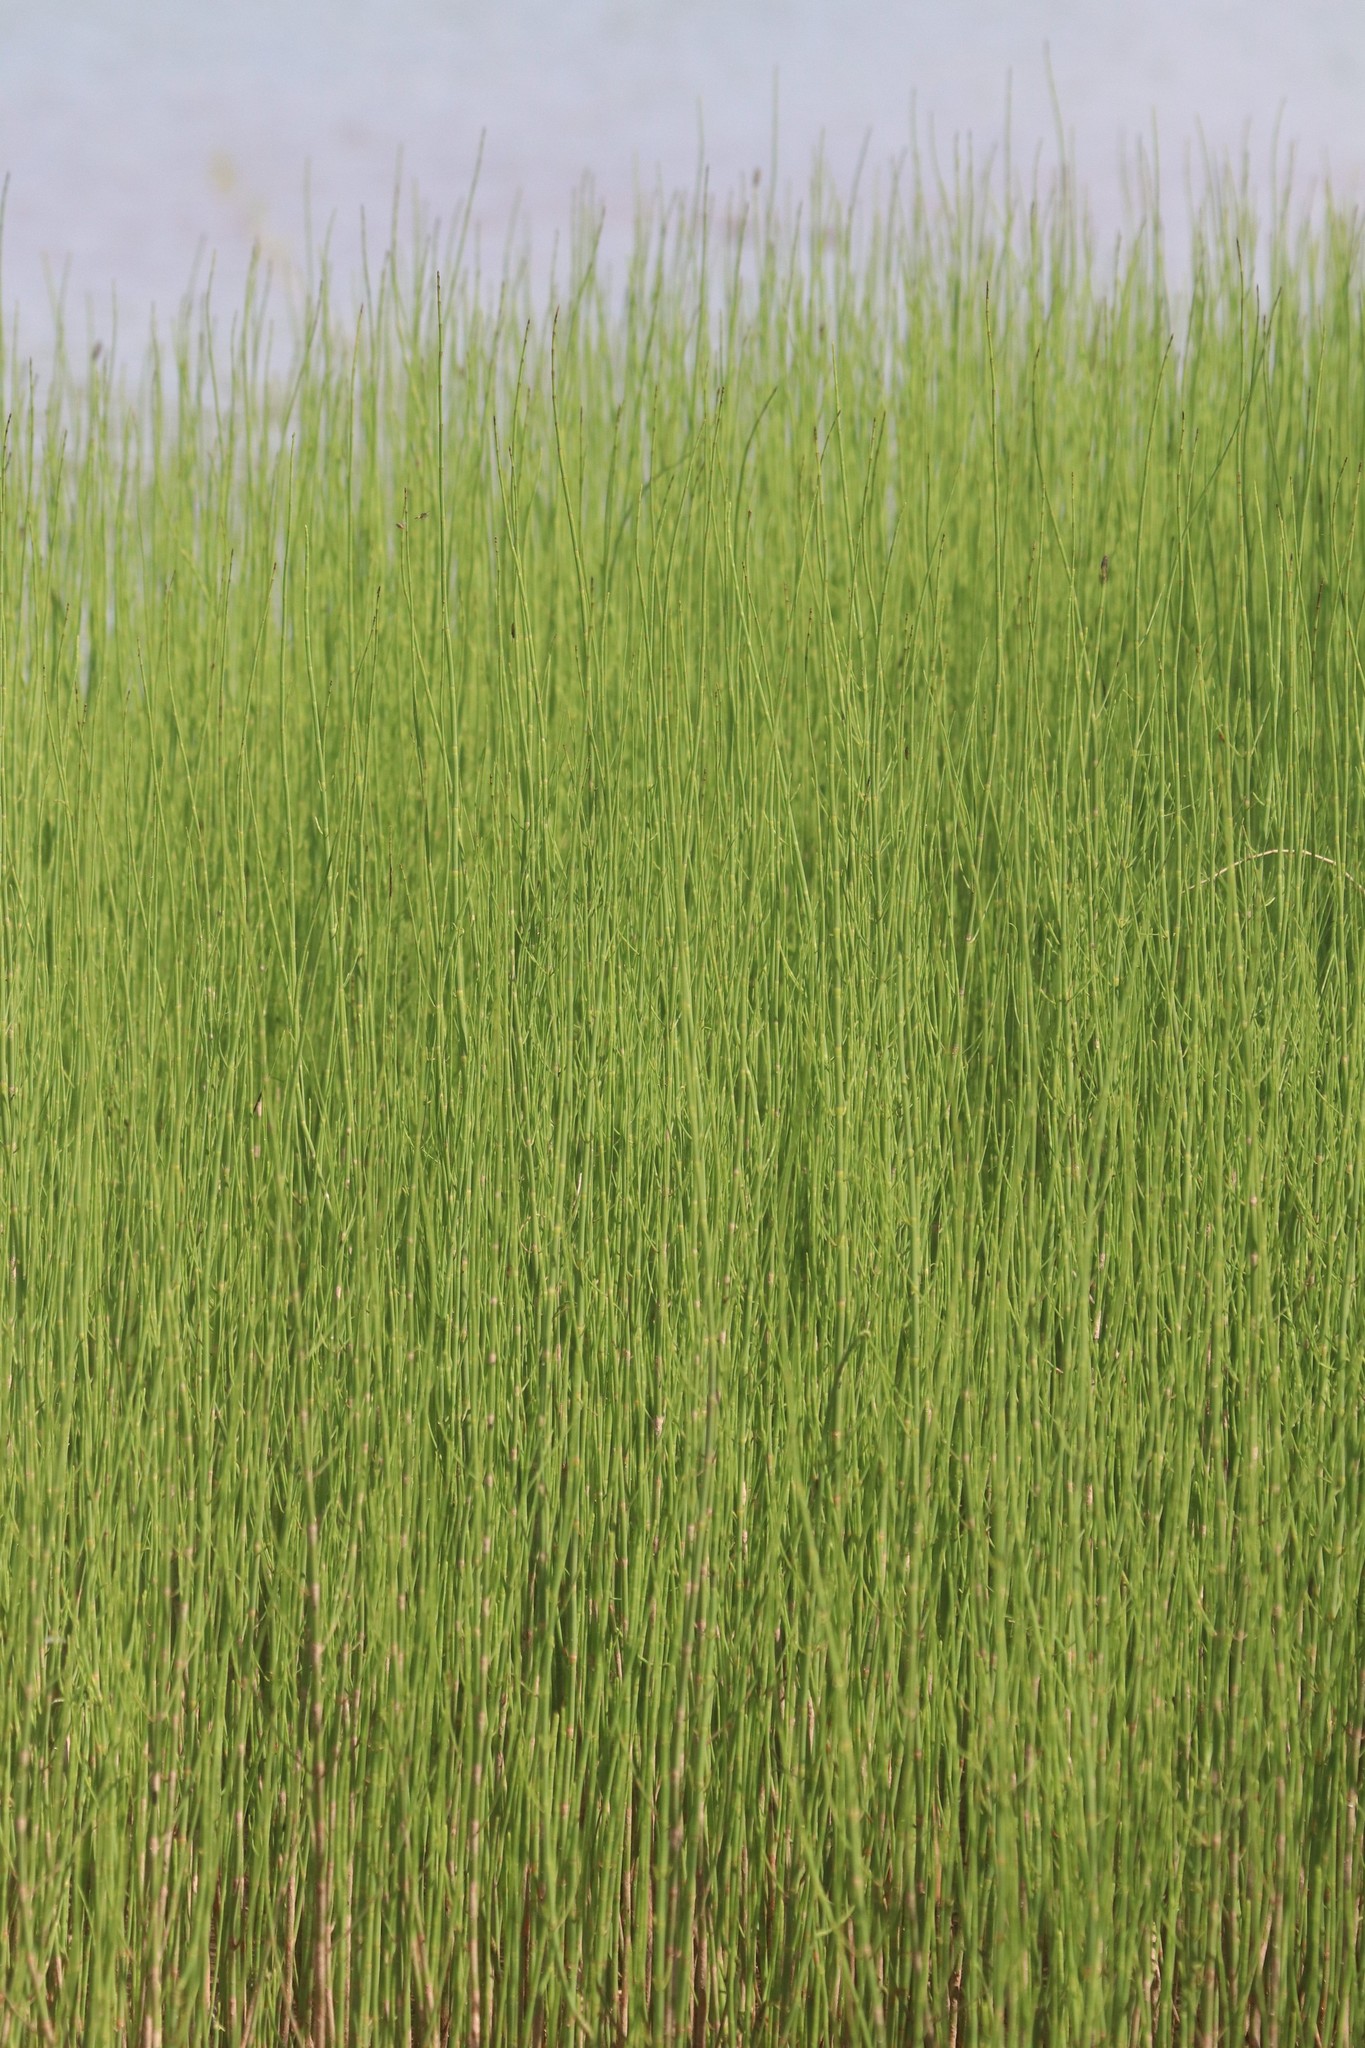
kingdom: Plantae
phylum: Tracheophyta
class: Polypodiopsida
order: Equisetales
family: Equisetaceae
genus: Equisetum
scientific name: Equisetum fluviatile
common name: Water horsetail
